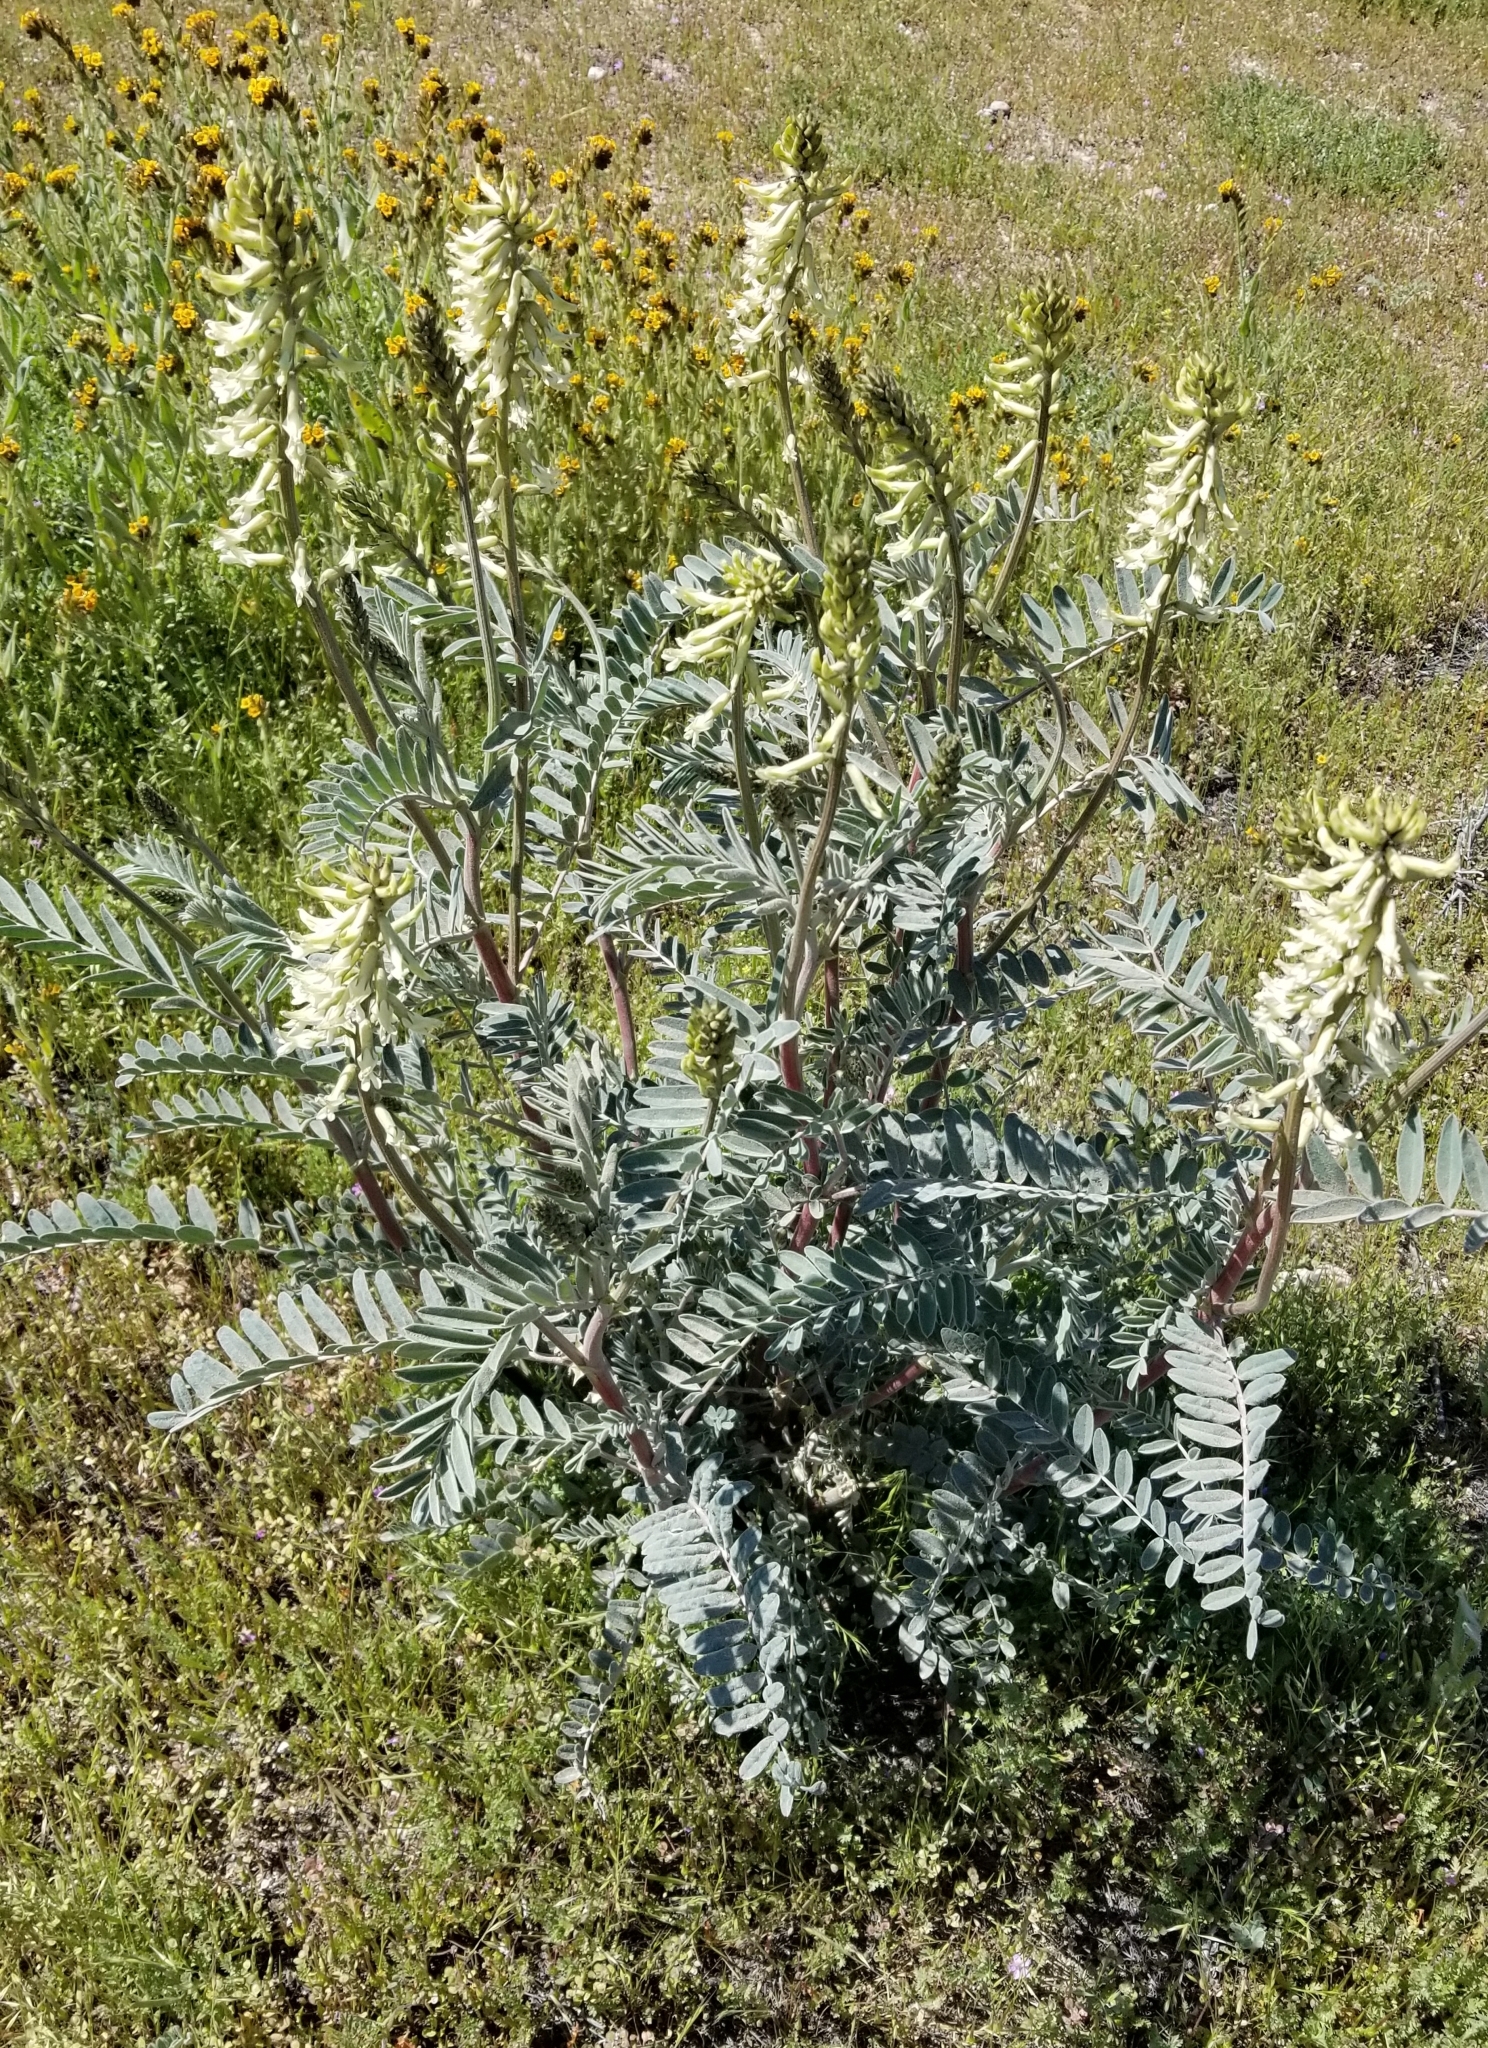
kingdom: Plantae
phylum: Tracheophyta
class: Magnoliopsida
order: Fabales
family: Fabaceae
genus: Astragalus
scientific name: Astragalus oxyphysus
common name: Stanislaus milk-vetch
